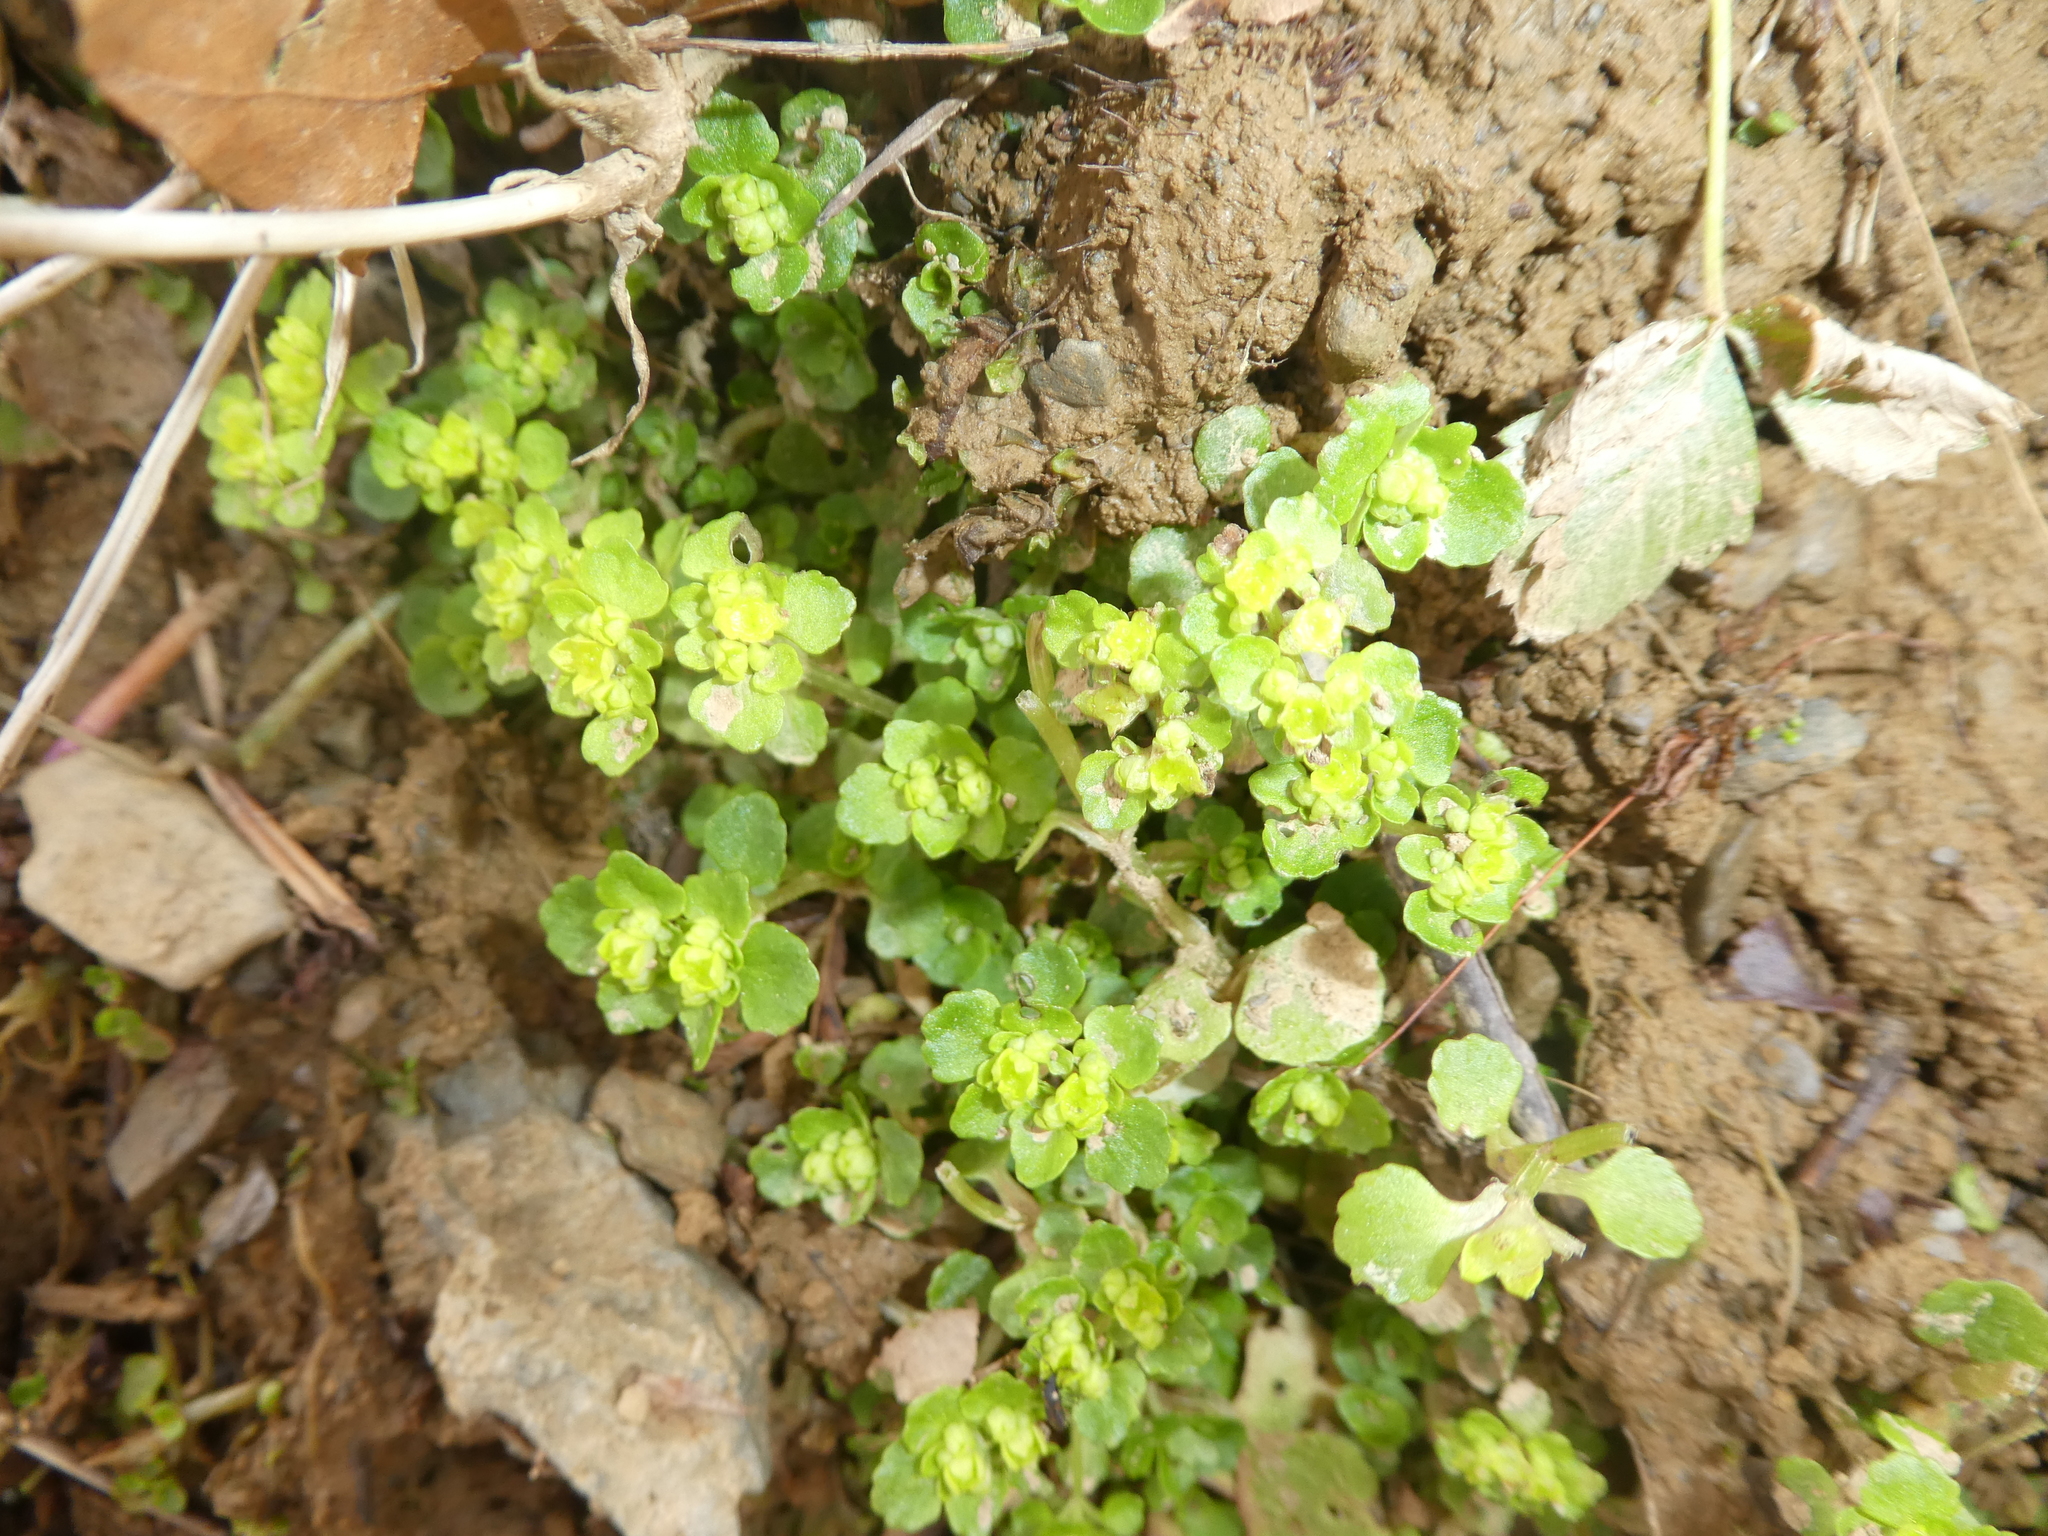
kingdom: Plantae
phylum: Tracheophyta
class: Magnoliopsida
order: Saxifragales
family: Saxifragaceae
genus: Chrysosplenium
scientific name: Chrysosplenium oppositifolium
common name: Opposite-leaved golden-saxifrage
